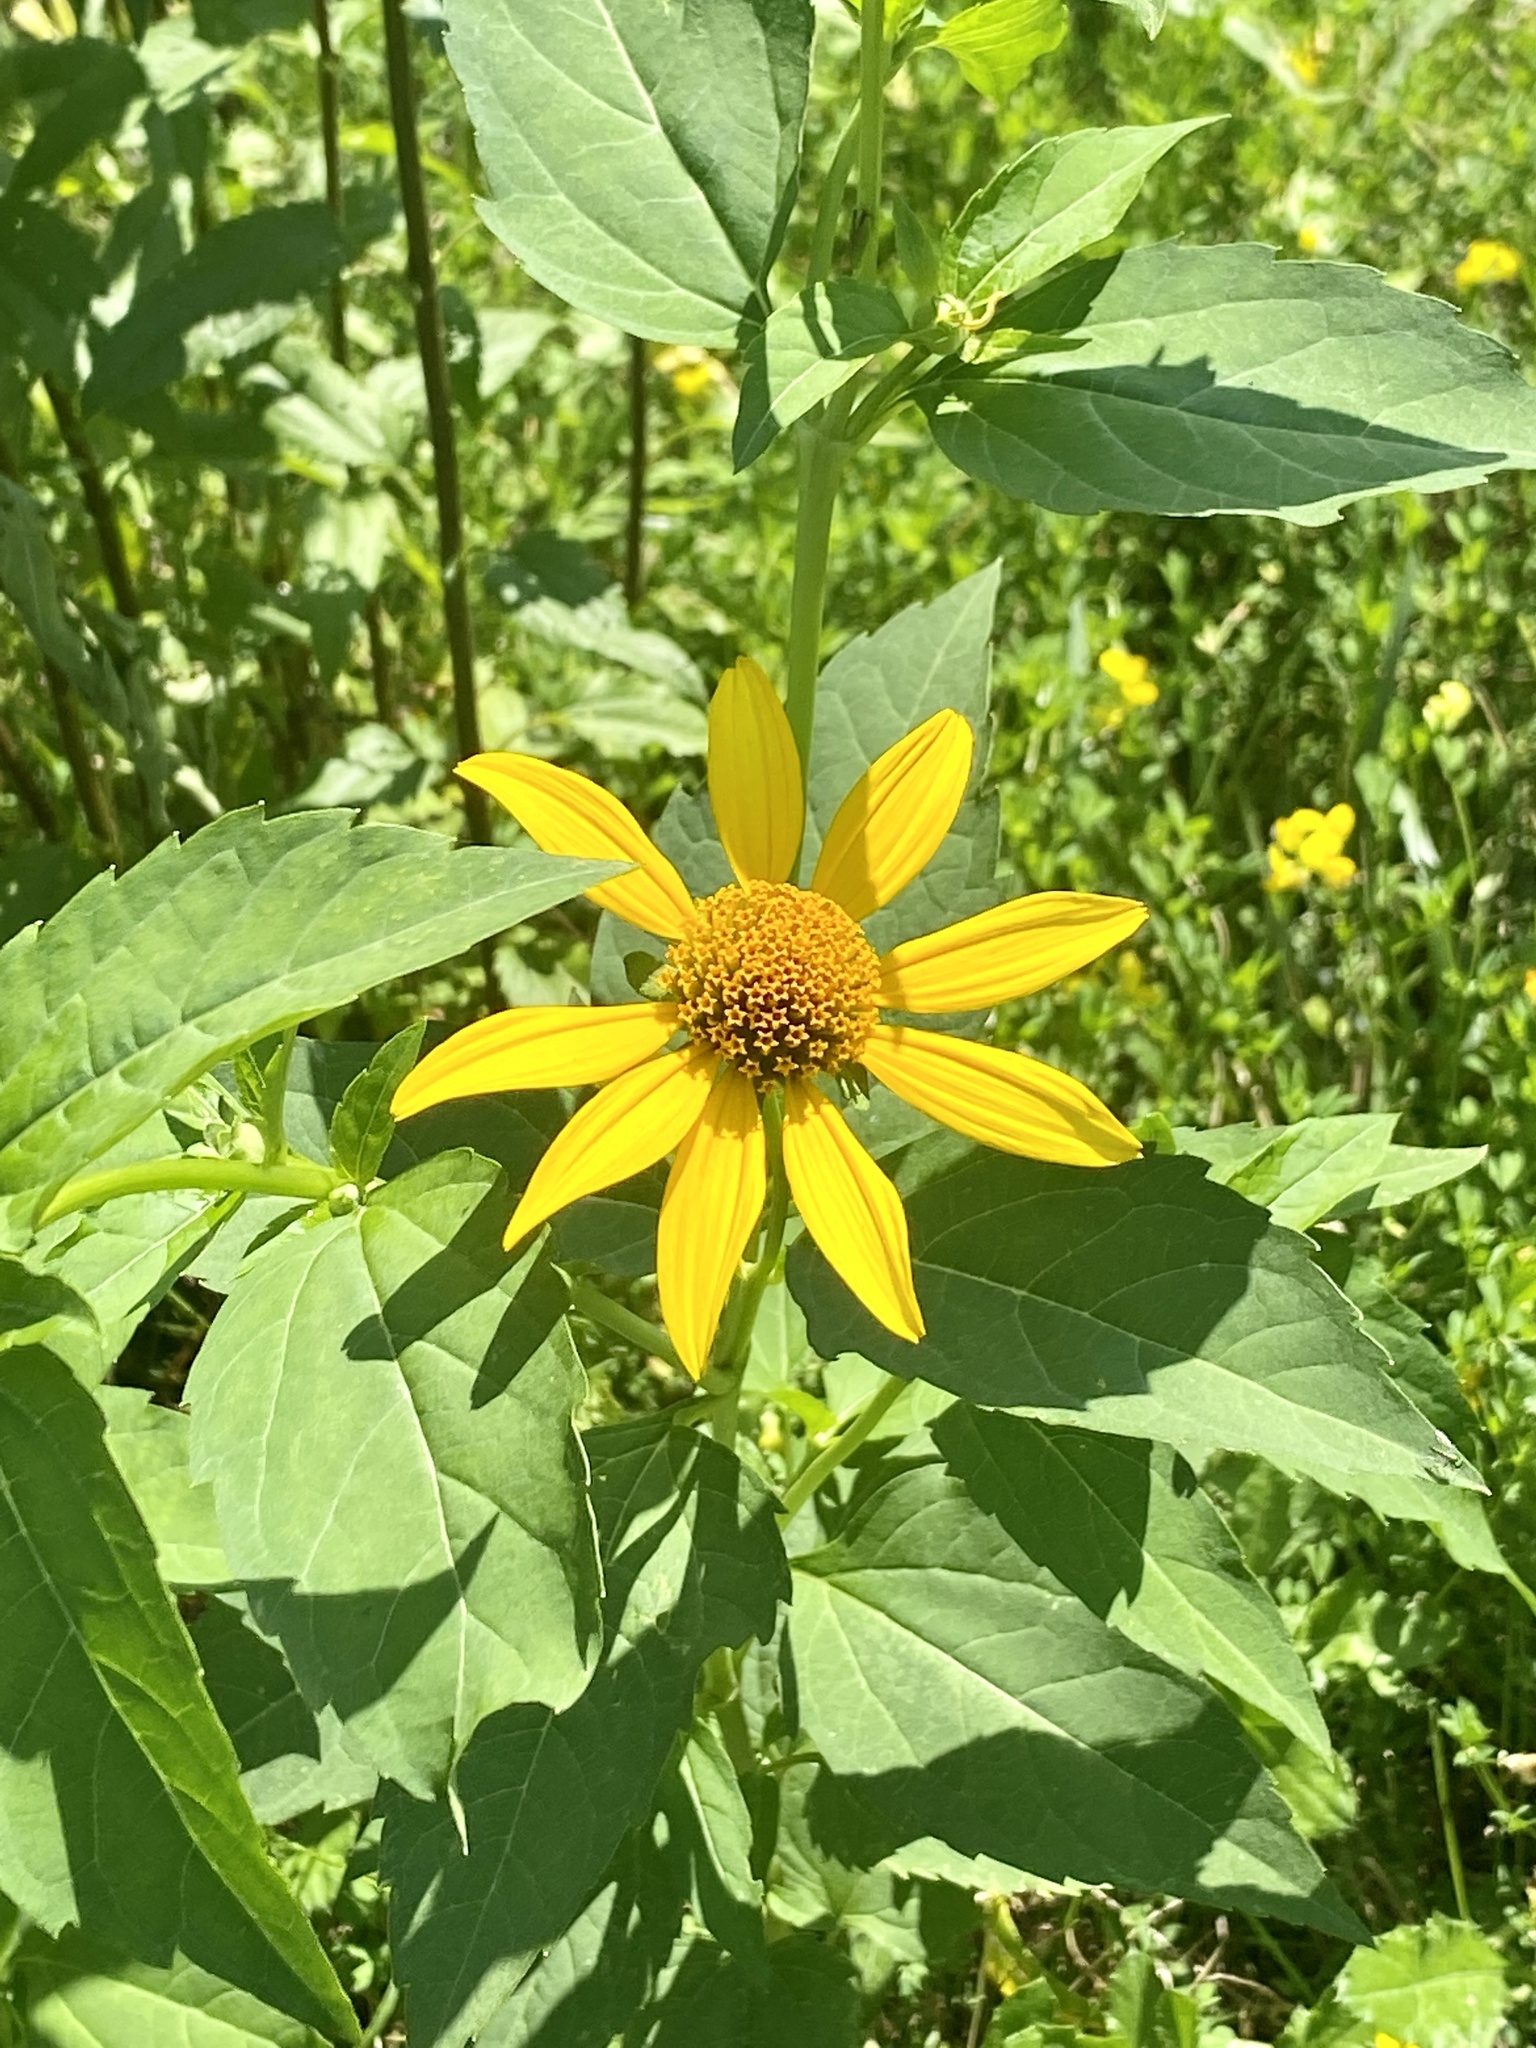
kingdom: Plantae
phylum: Tracheophyta
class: Magnoliopsida
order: Asterales
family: Asteraceae
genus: Heliopsis
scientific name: Heliopsis helianthoides
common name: False sunflower
